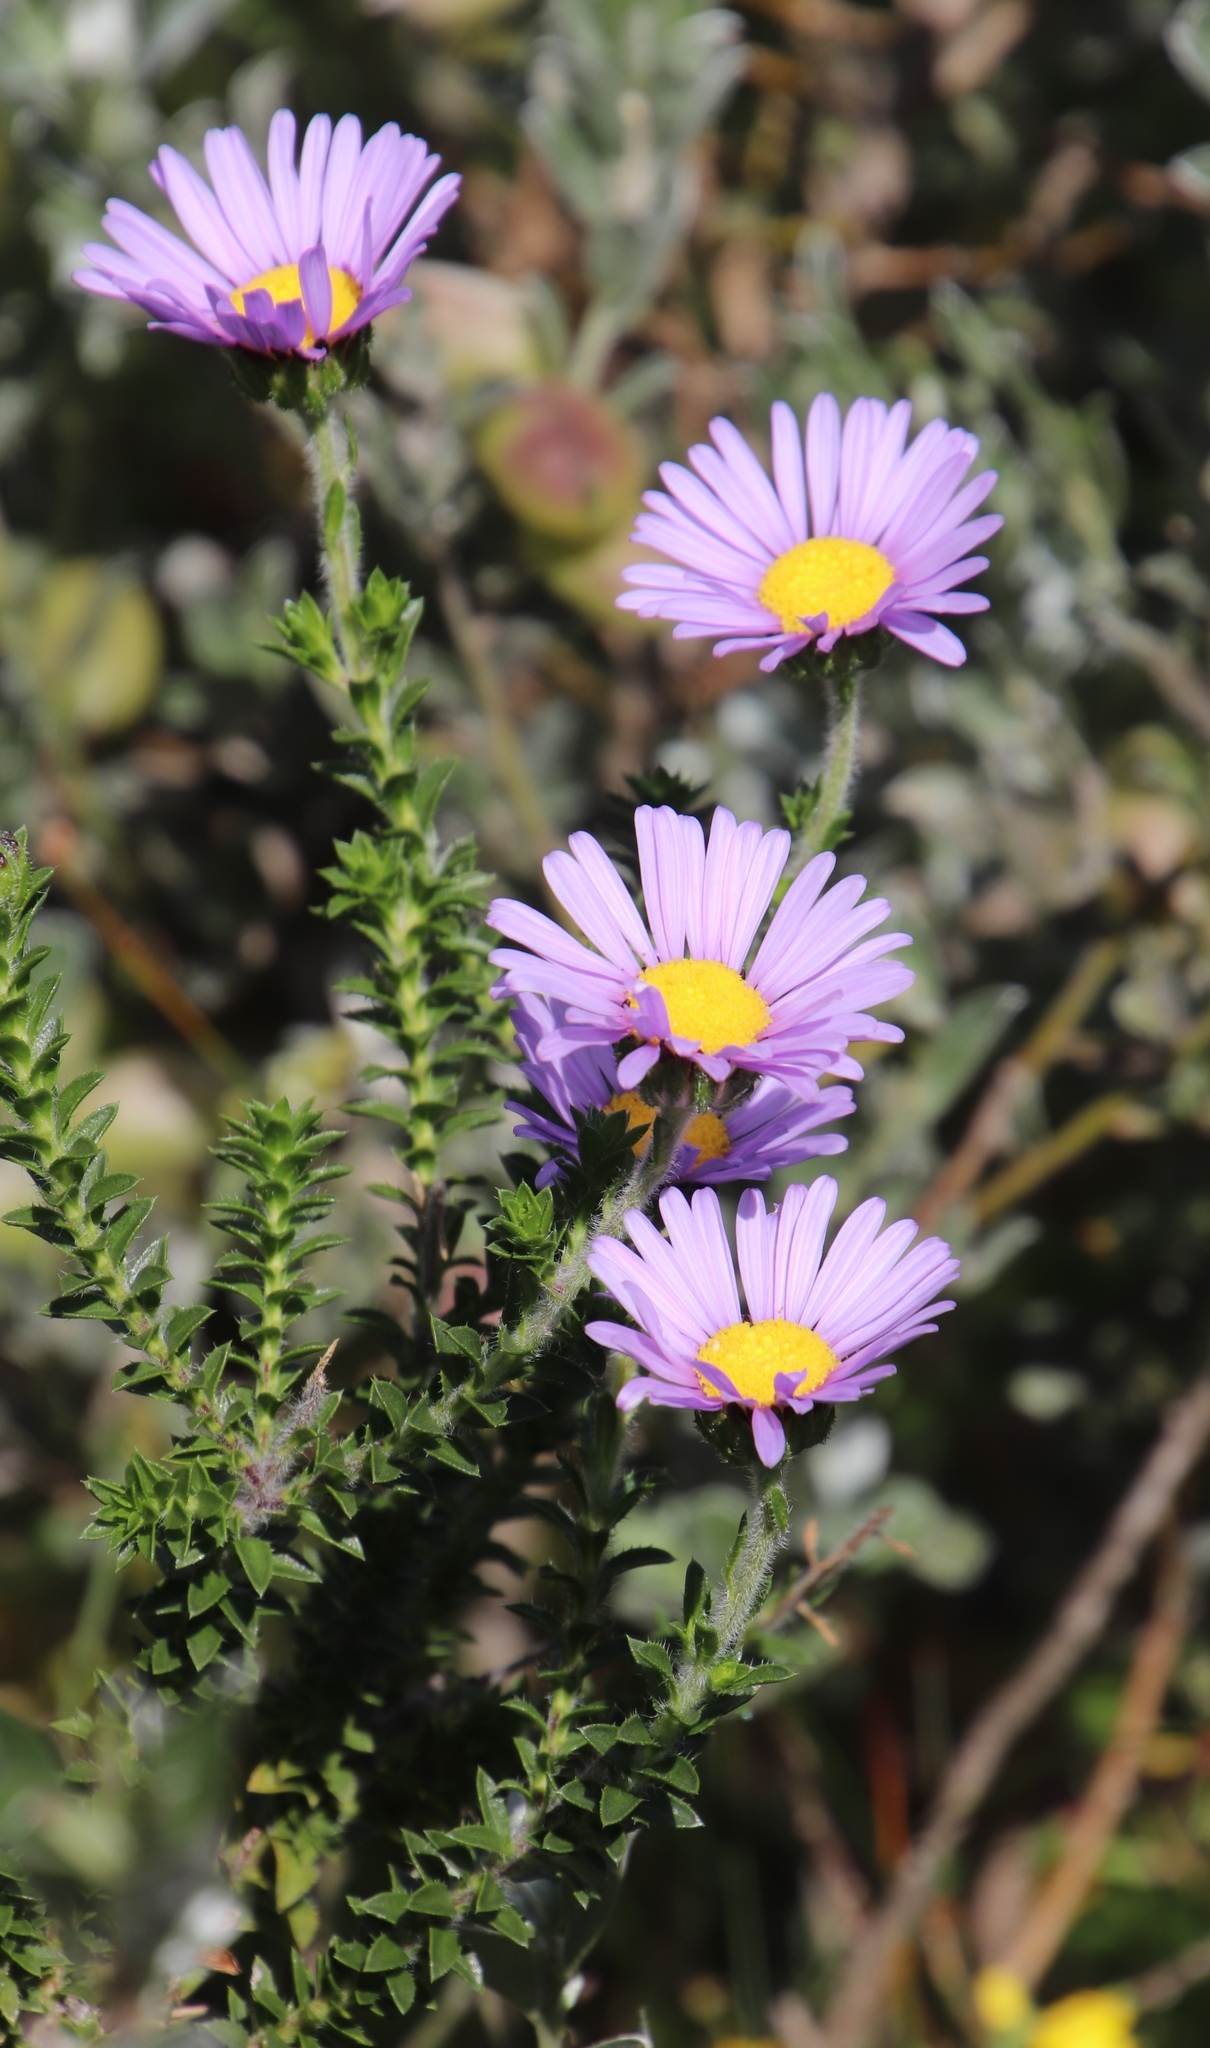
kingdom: Plantae
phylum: Tracheophyta
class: Magnoliopsida
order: Asterales
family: Asteraceae
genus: Felicia
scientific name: Felicia echinata
